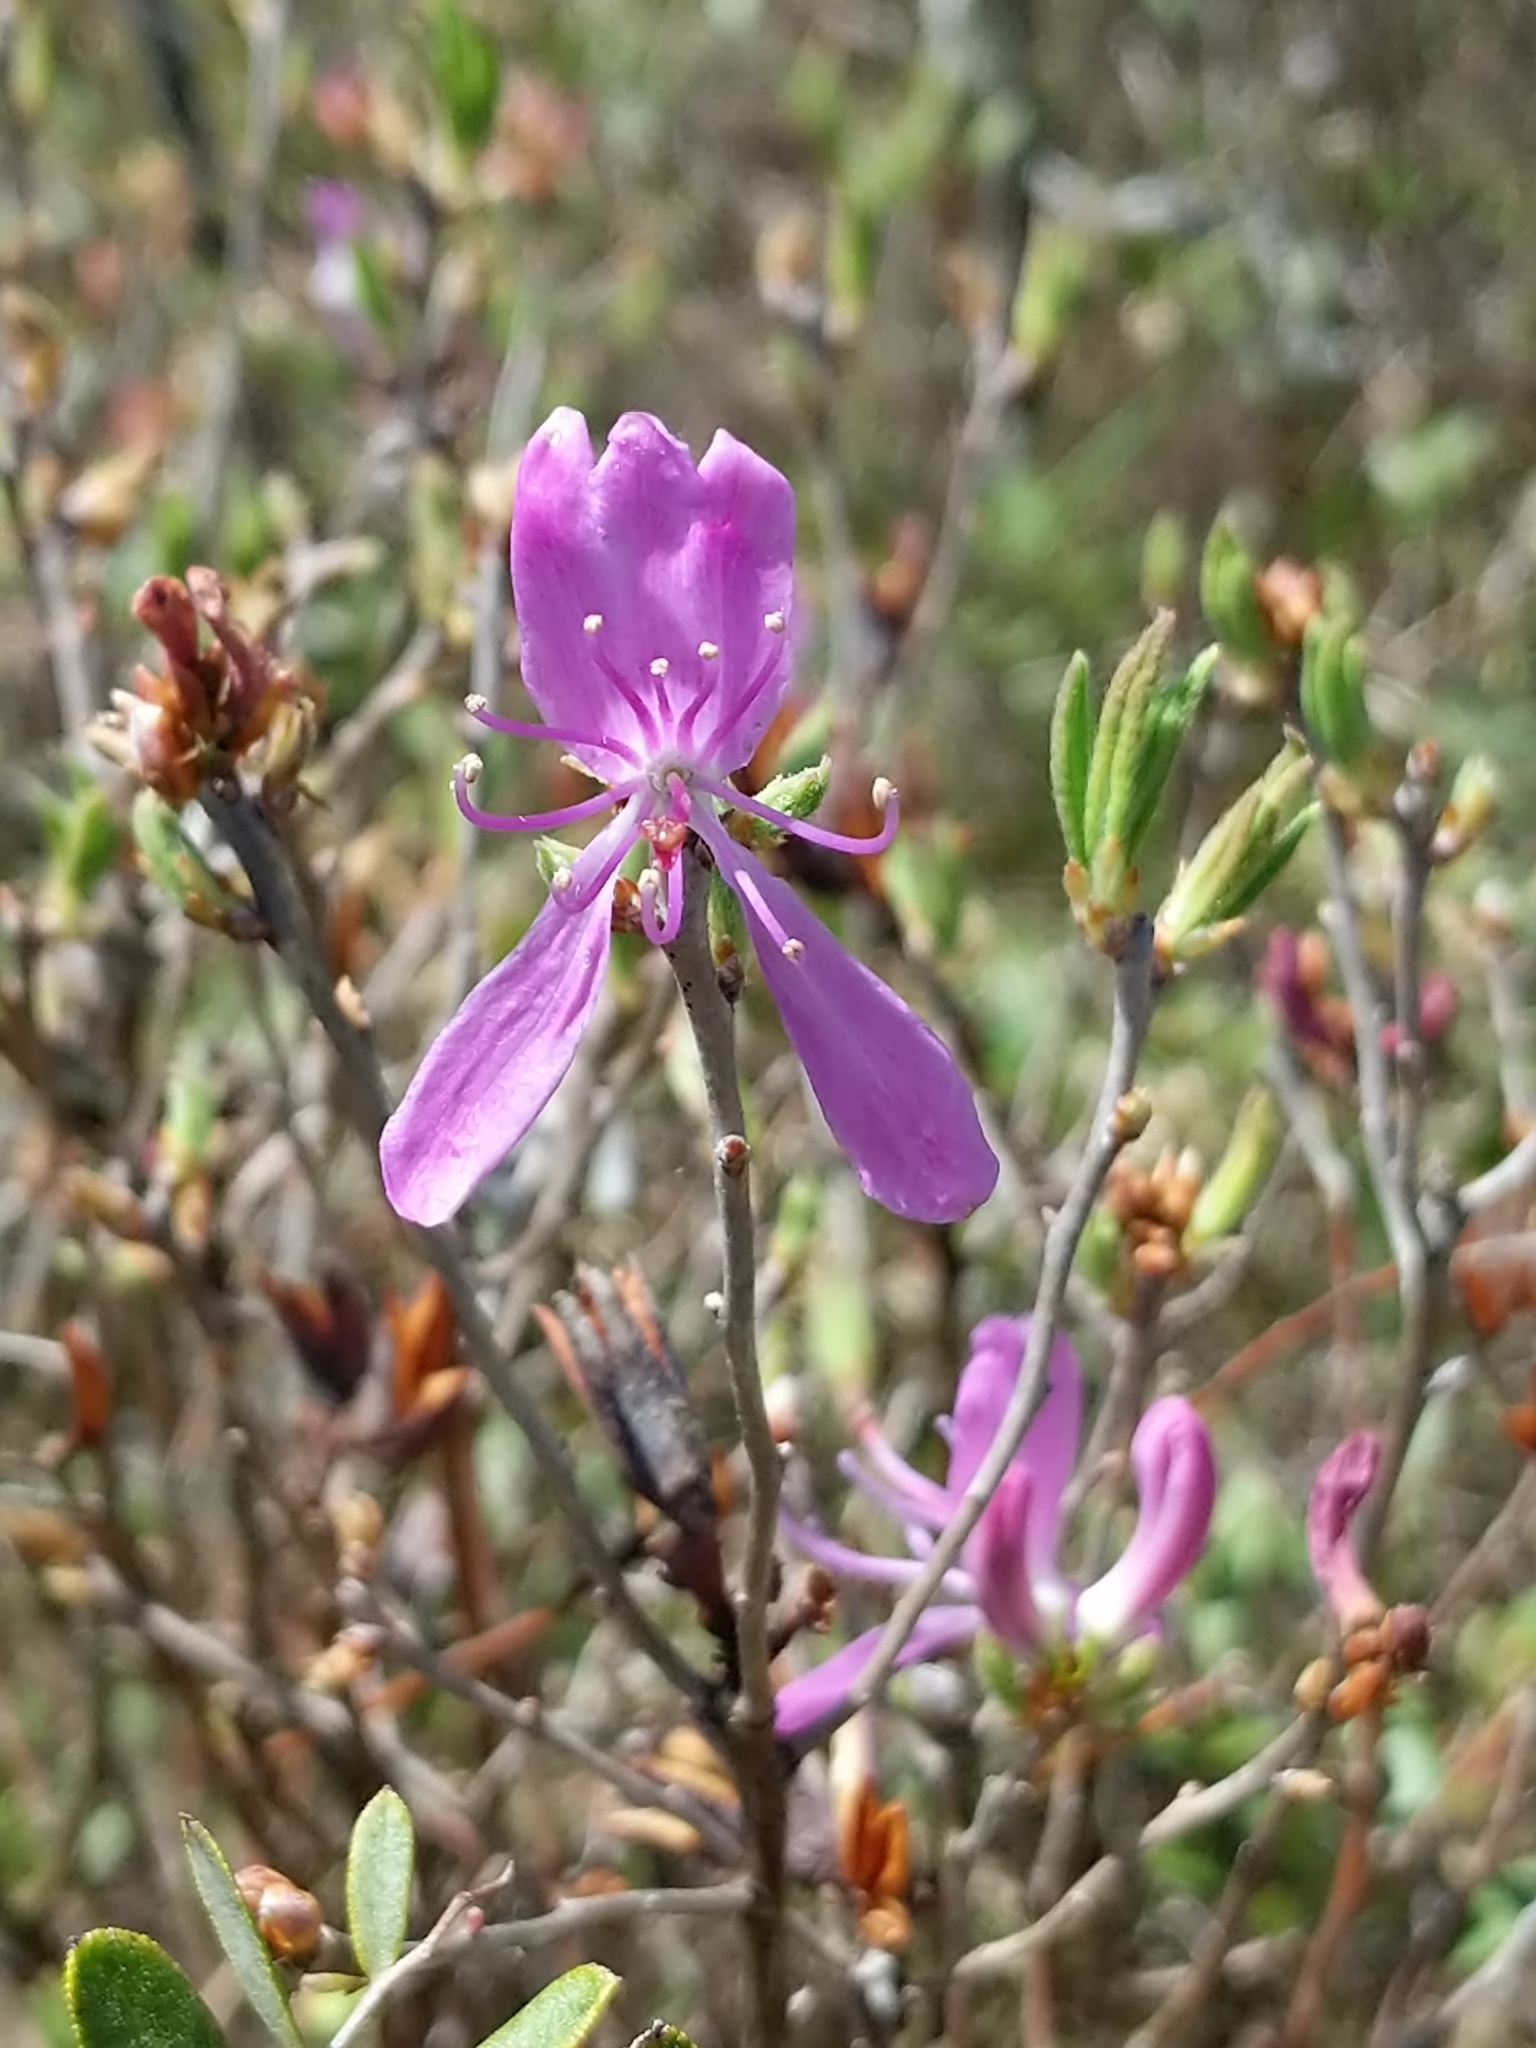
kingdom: Plantae
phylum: Tracheophyta
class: Magnoliopsida
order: Ericales
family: Ericaceae
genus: Rhododendron
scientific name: Rhododendron canadense
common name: Rhodora
